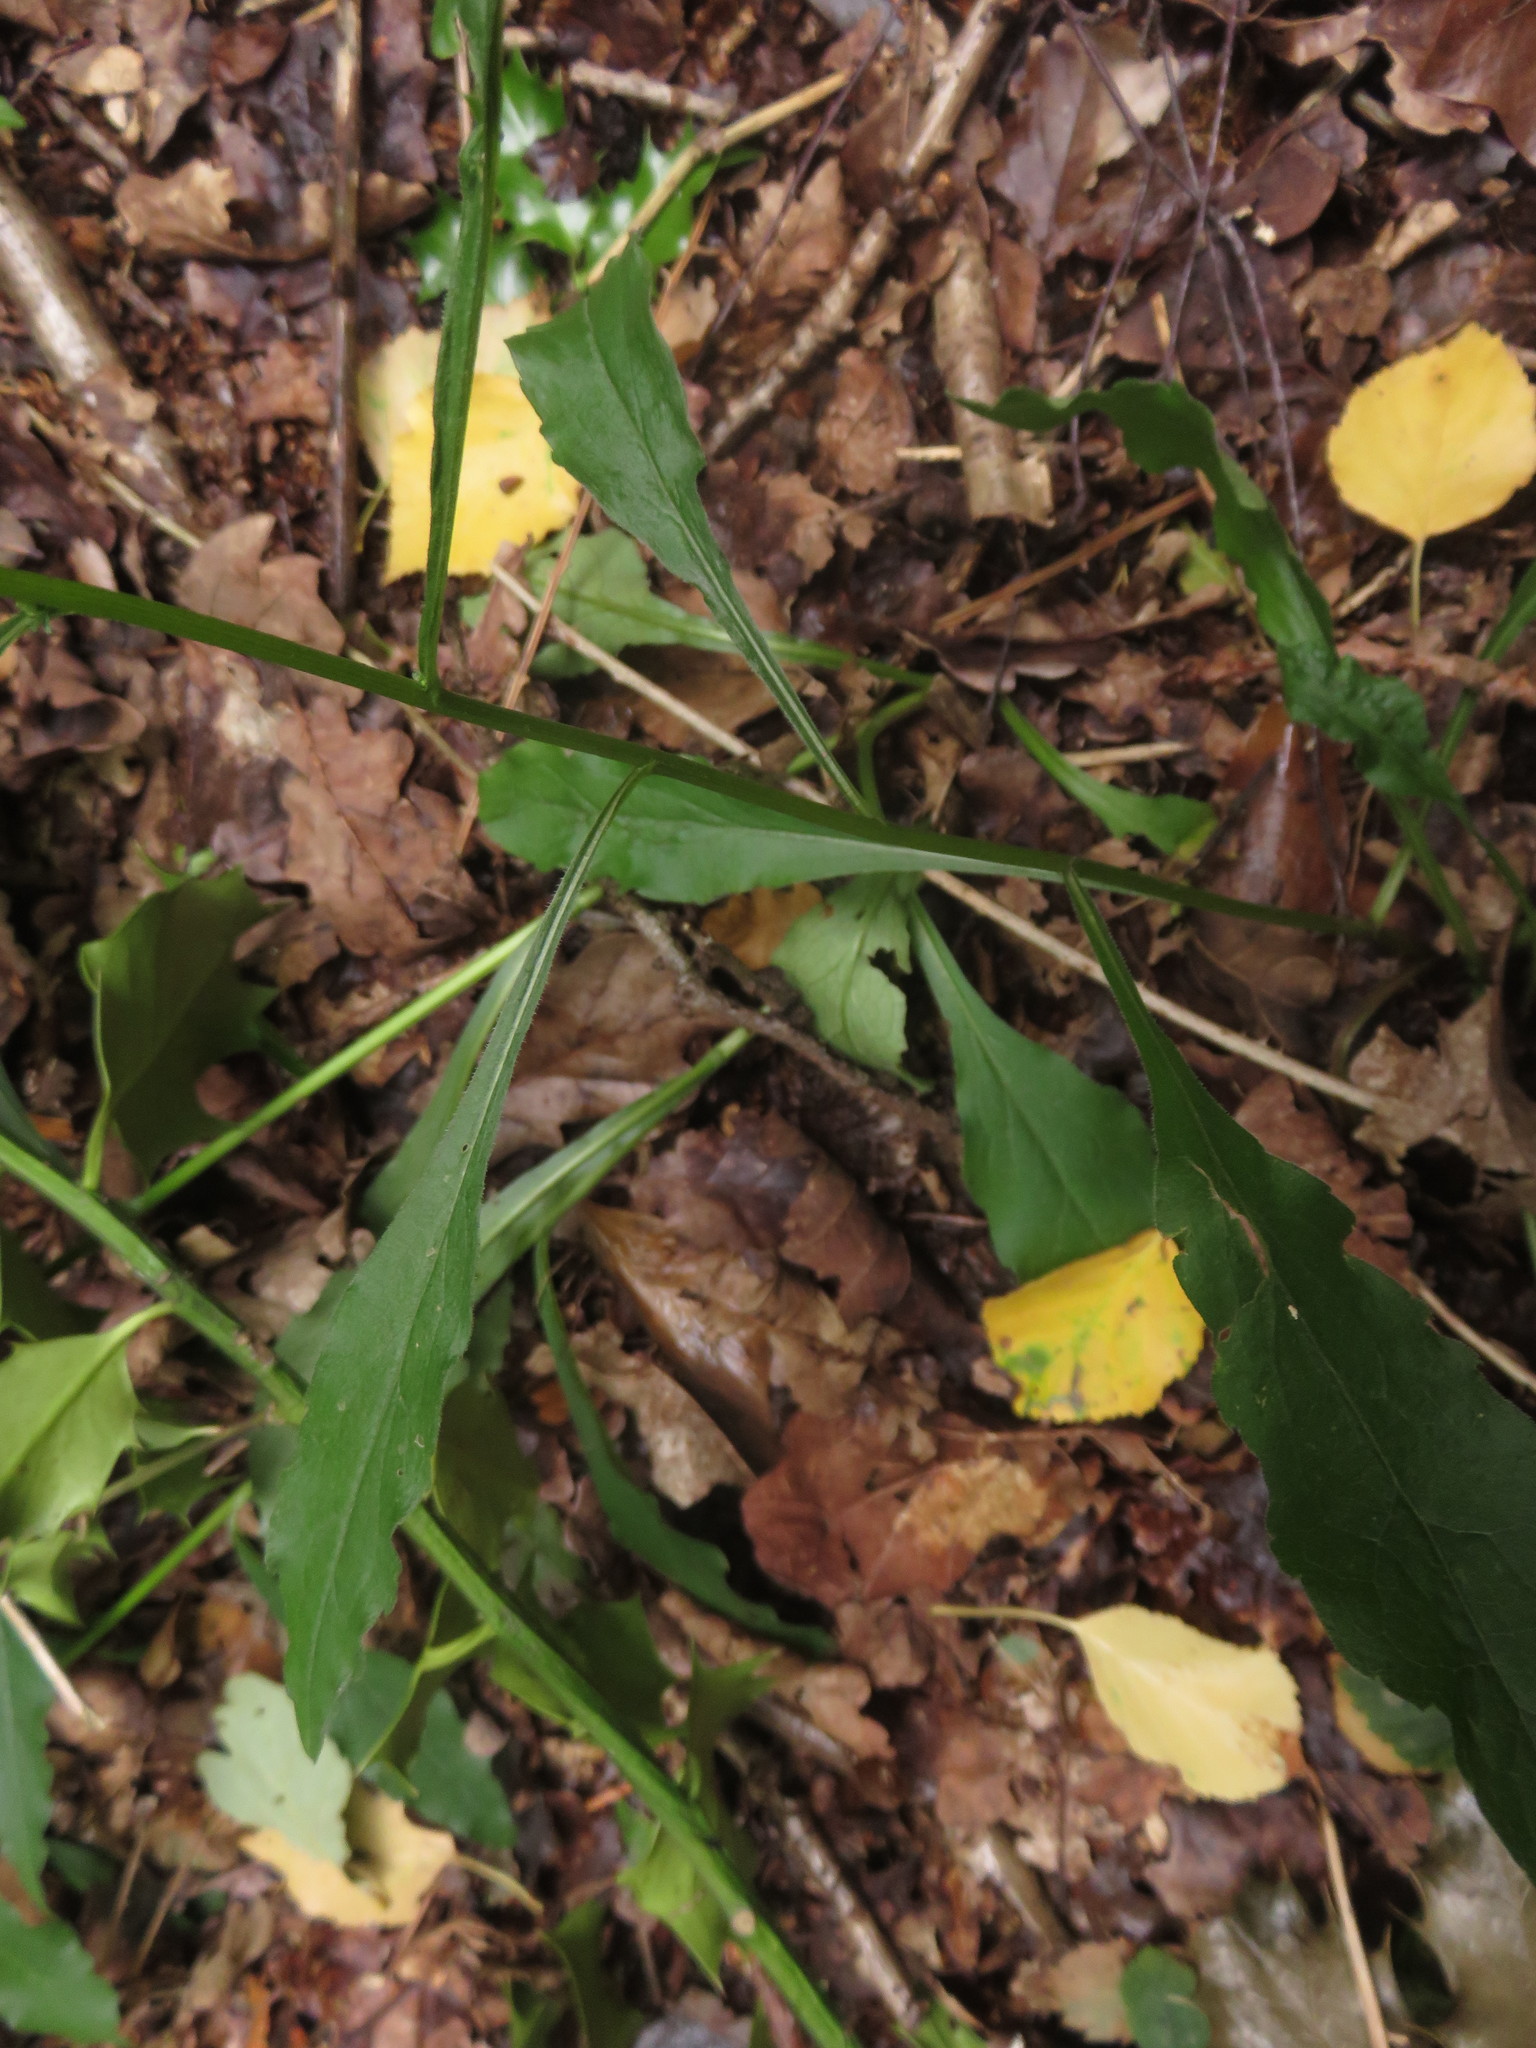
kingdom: Plantae
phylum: Tracheophyta
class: Magnoliopsida
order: Asterales
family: Asteraceae
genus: Solidago
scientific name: Solidago virgaurea
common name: Goldenrod
